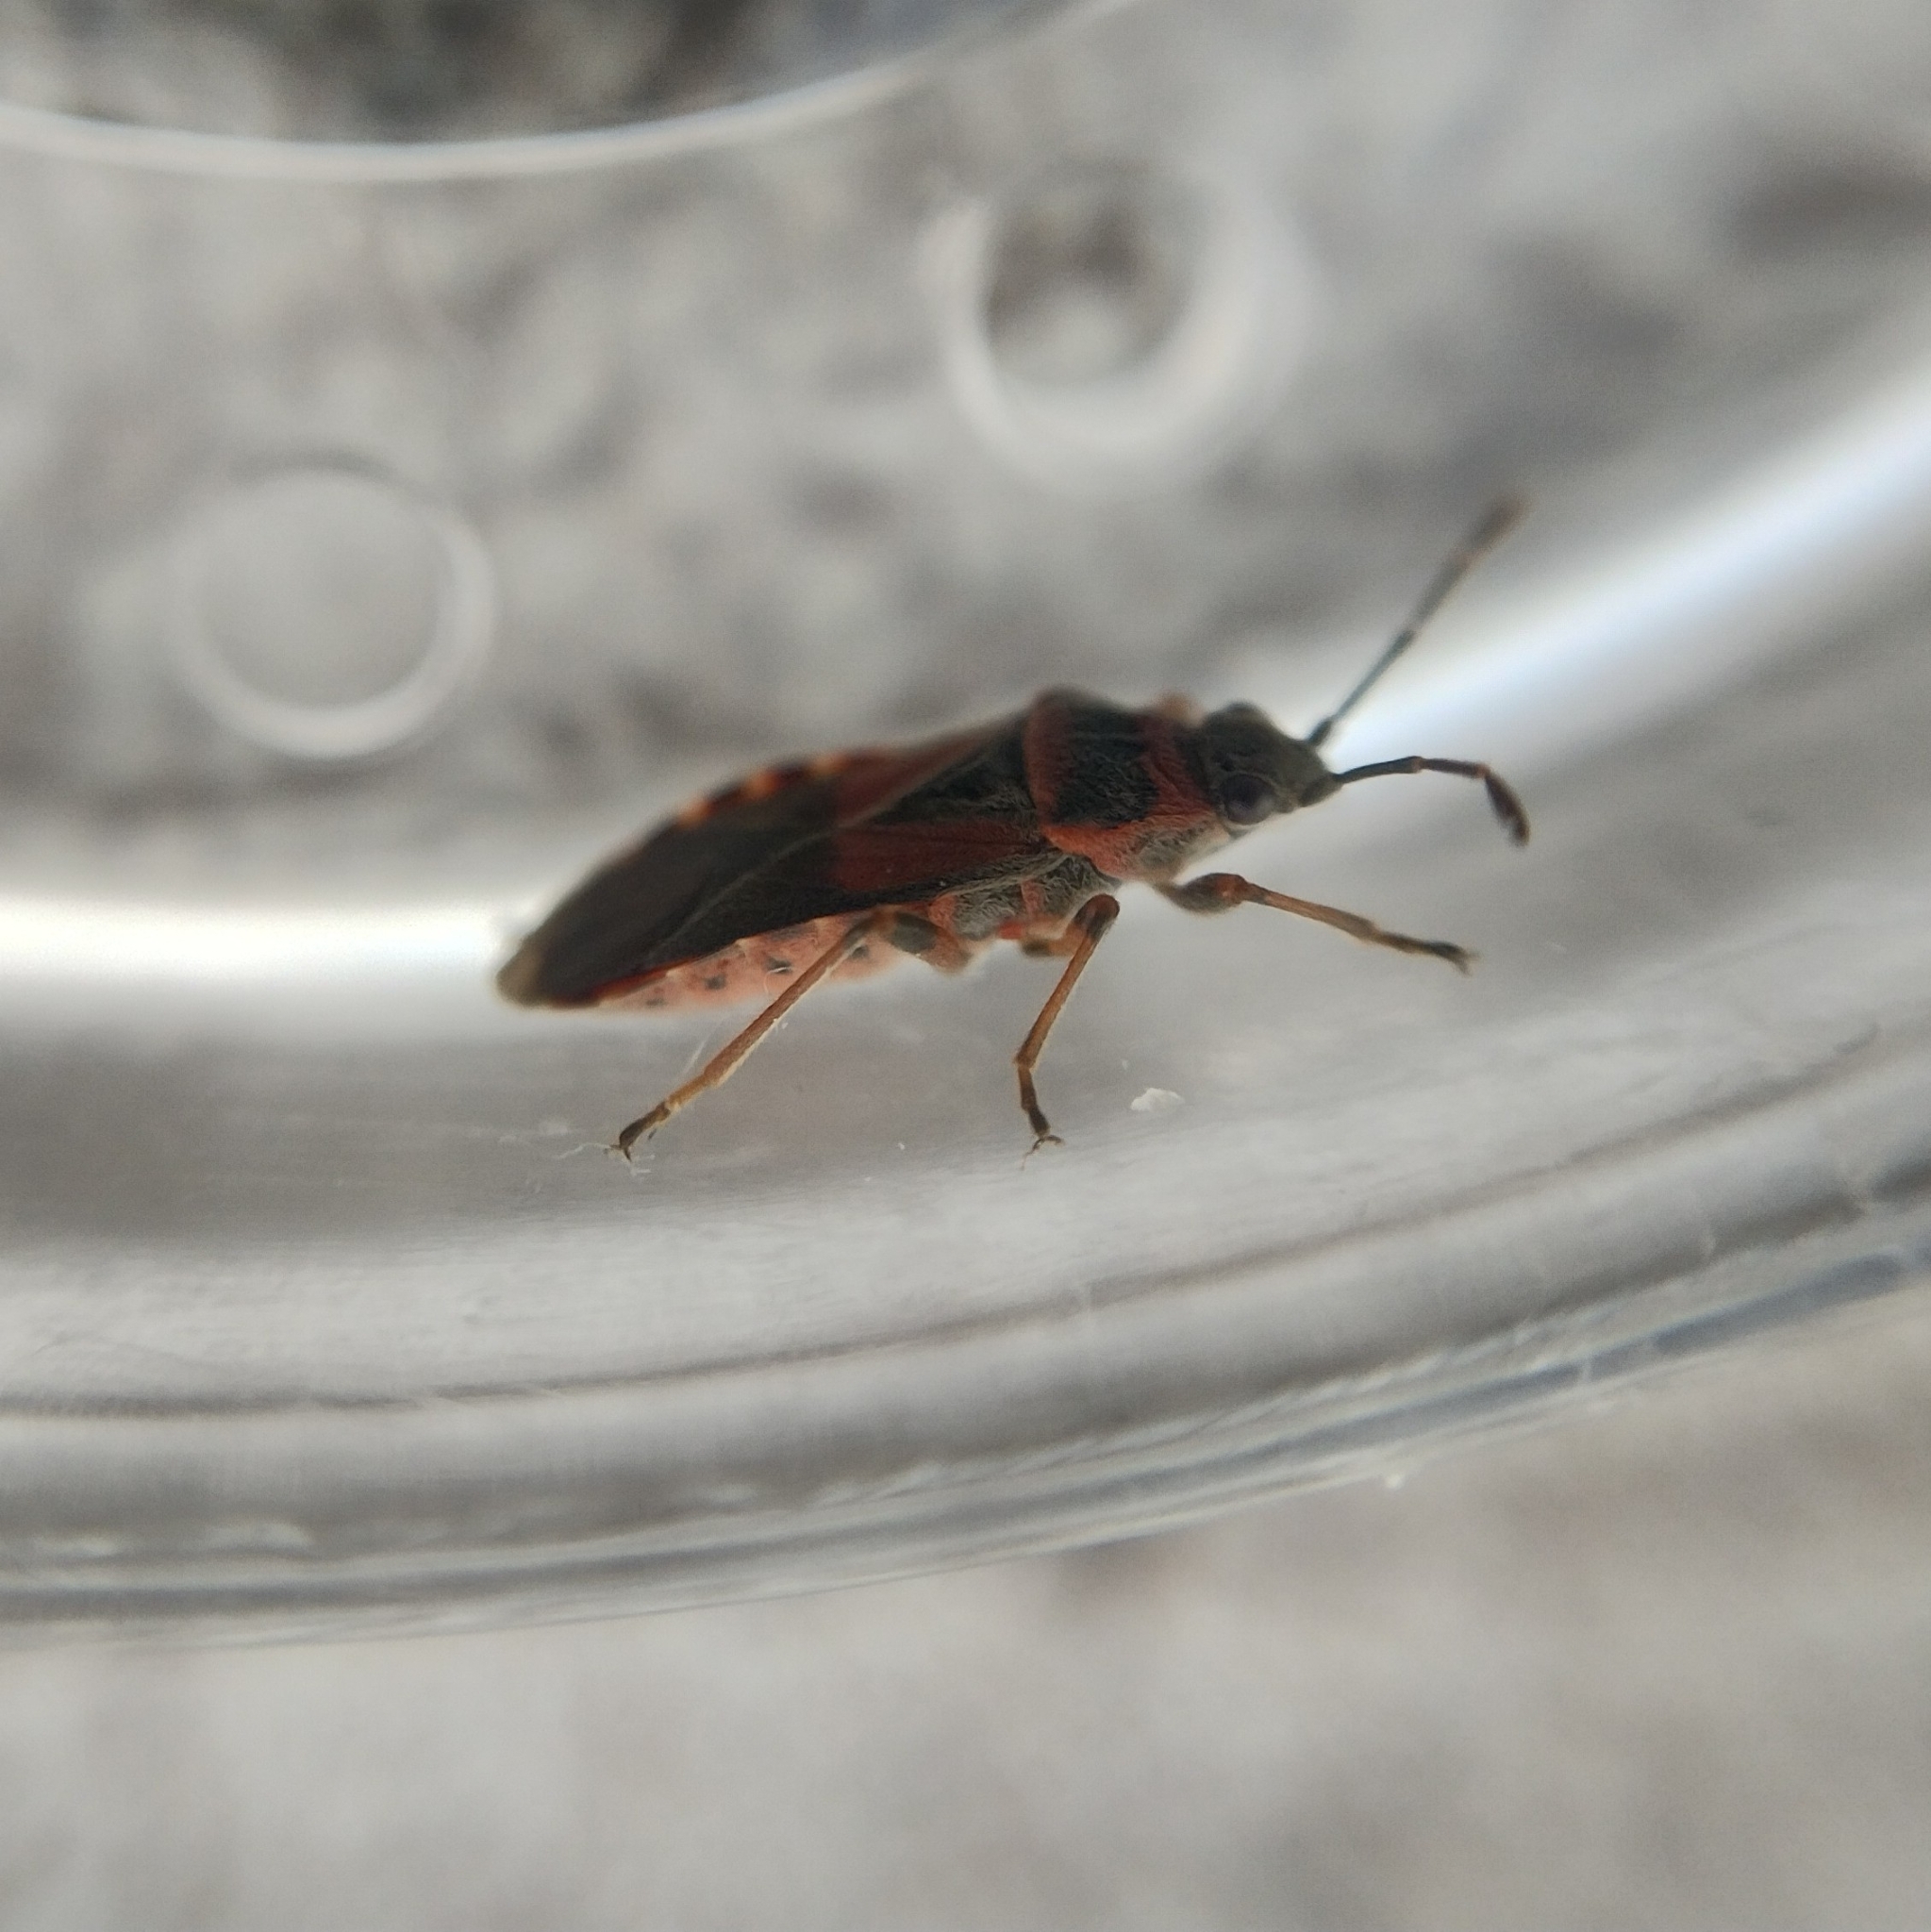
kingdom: Animalia
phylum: Arthropoda
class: Insecta
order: Hemiptera
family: Lygaeidae
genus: Arocatus
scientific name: Arocatus melanocephalus
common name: Lygaeid bug
